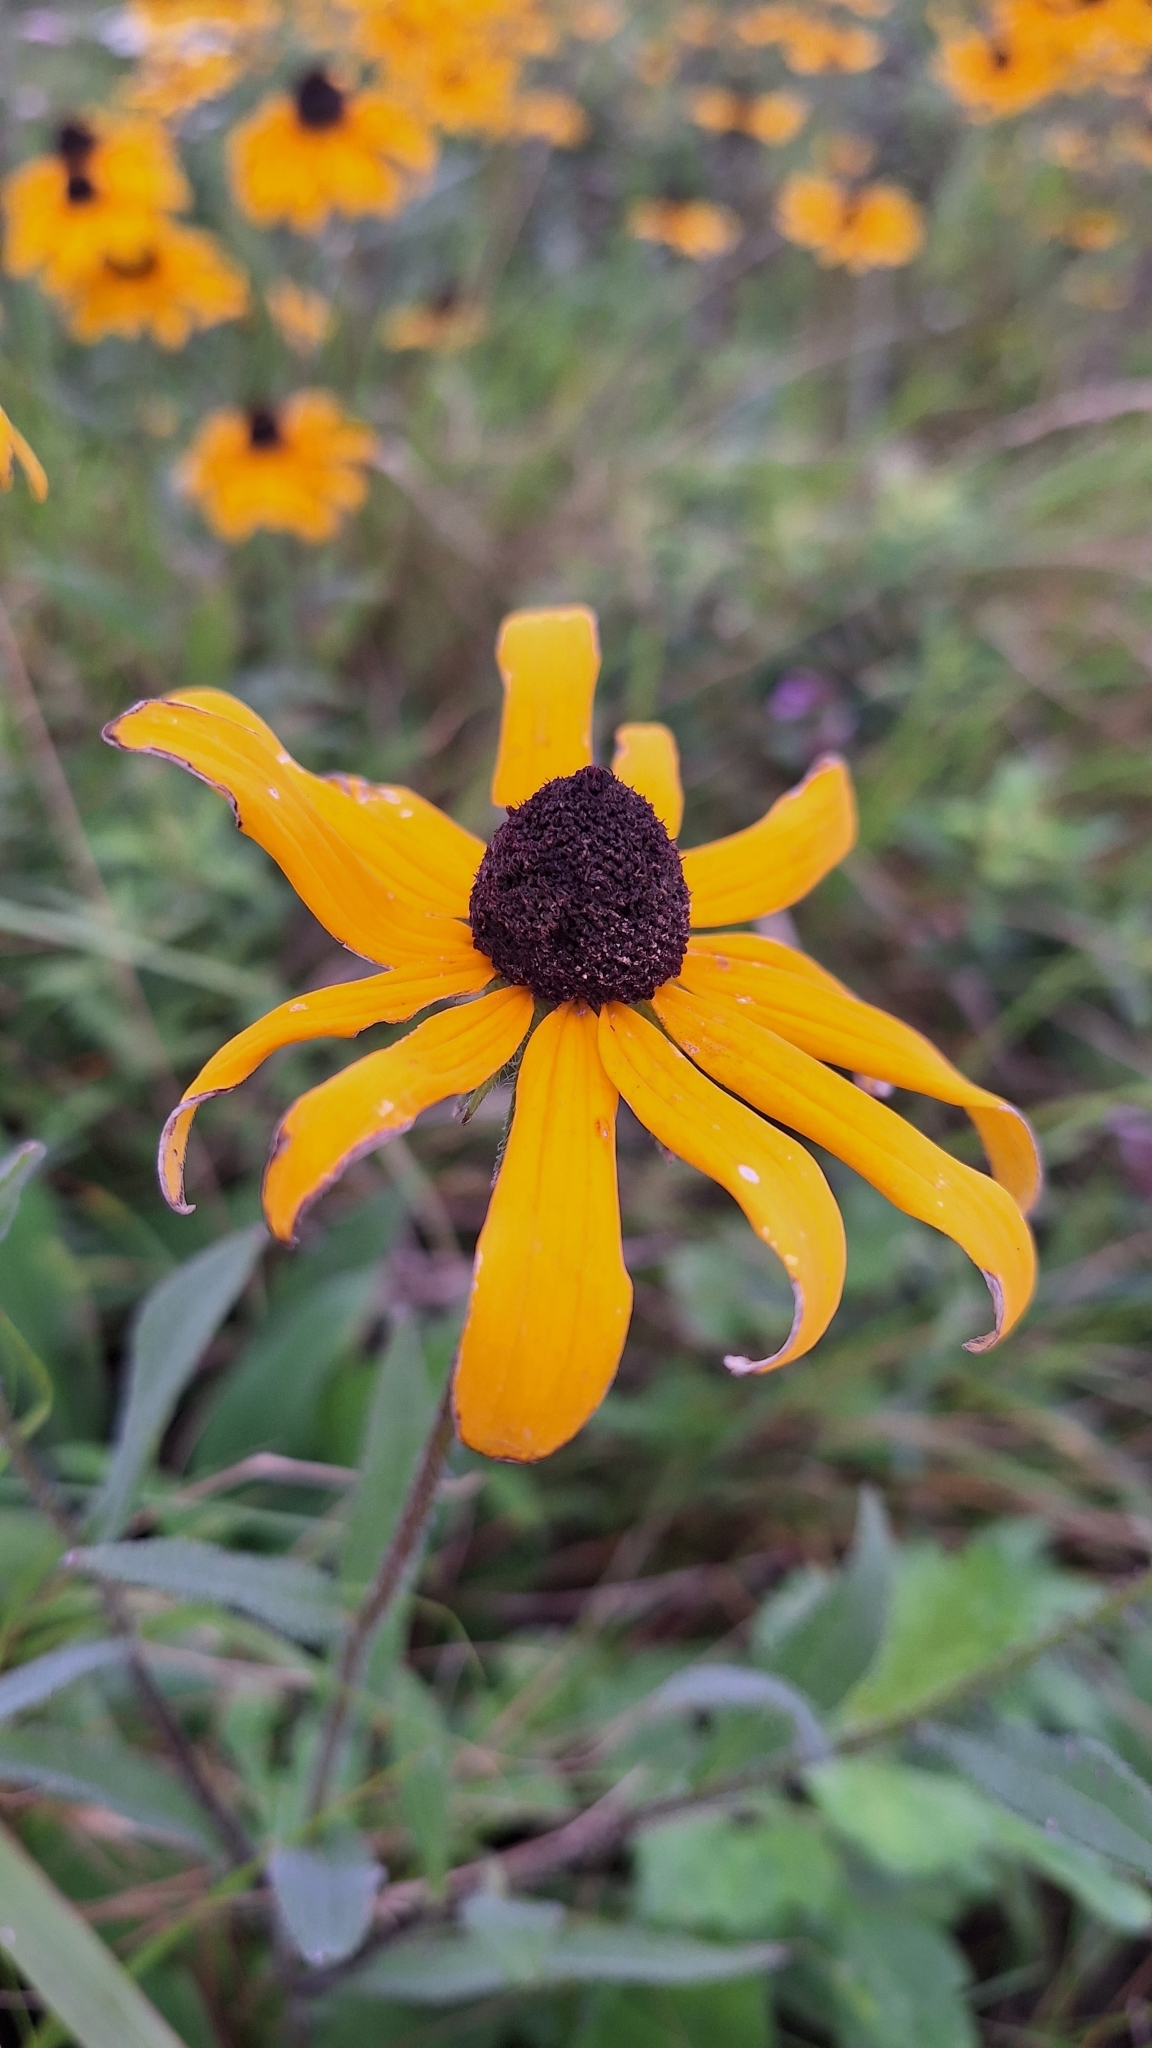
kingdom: Plantae
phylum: Tracheophyta
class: Magnoliopsida
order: Asterales
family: Asteraceae
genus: Rudbeckia
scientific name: Rudbeckia hirta
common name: Black-eyed-susan
